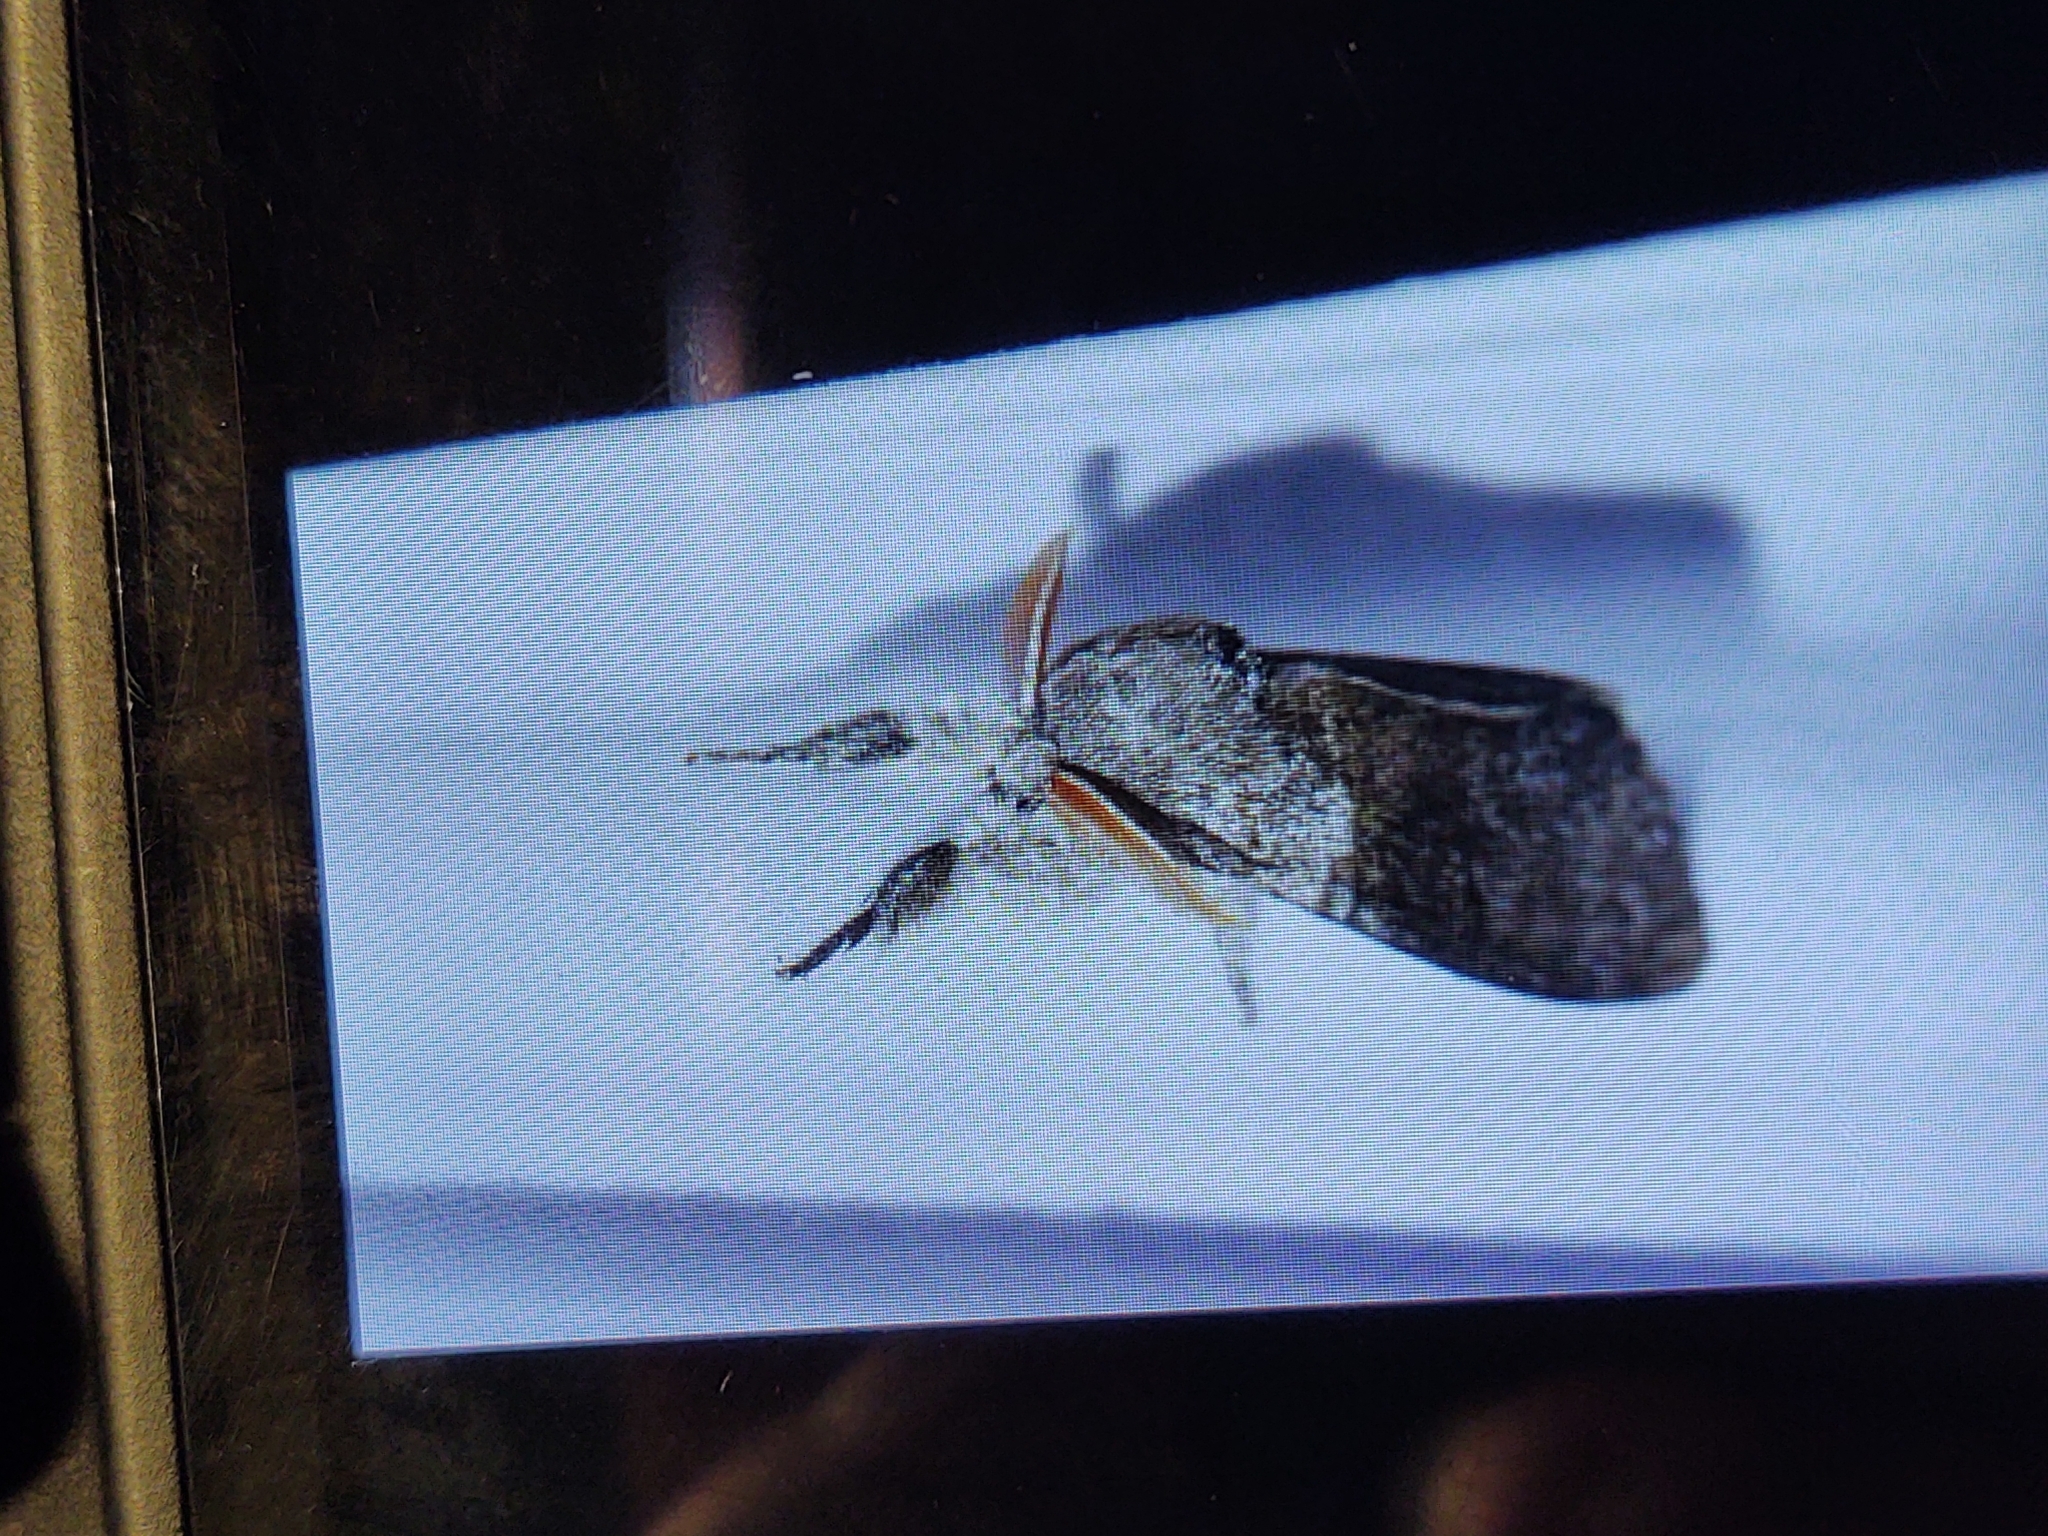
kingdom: Animalia
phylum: Arthropoda
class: Insecta
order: Lepidoptera
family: Erebidae
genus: Calliteara
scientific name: Calliteara pudibunda
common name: Pale tussock
